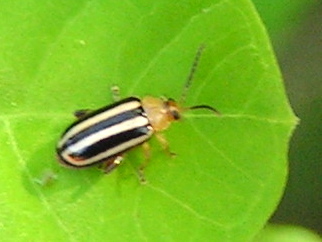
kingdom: Animalia
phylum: Arthropoda
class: Insecta
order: Coleoptera
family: Chrysomelidae
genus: Disonycha
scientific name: Disonycha glabrata
